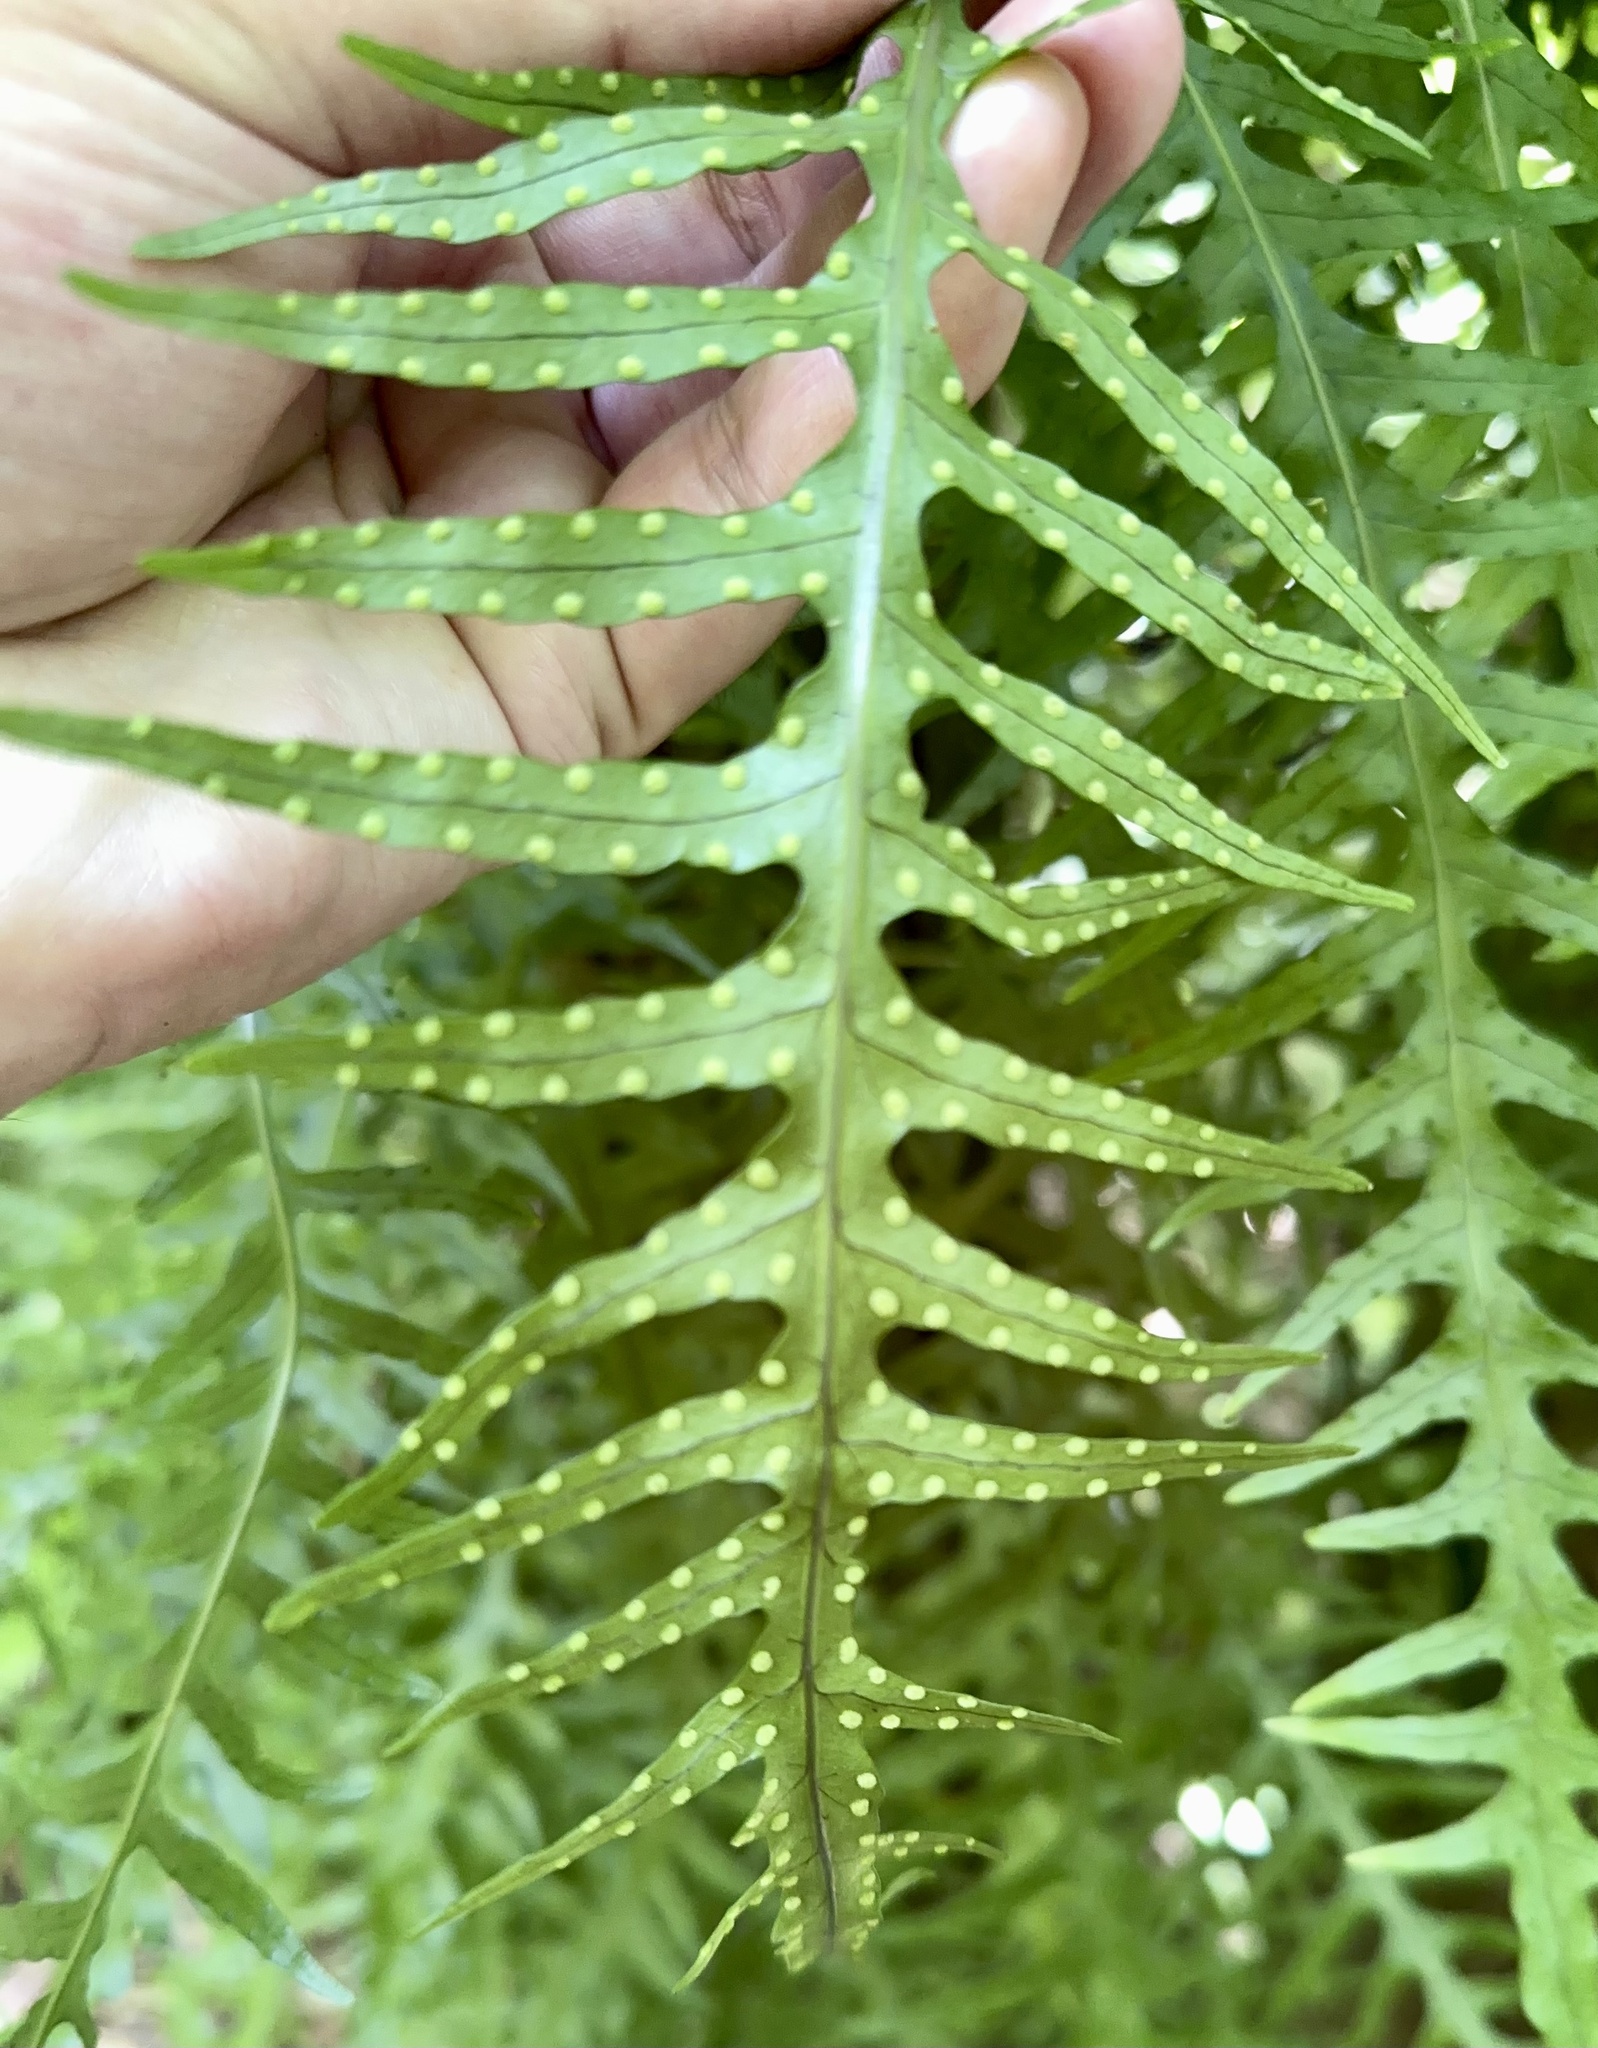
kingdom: Plantae
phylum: Tracheophyta
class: Polypodiopsida
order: Polypodiales
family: Polypodiaceae
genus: Lecanopteris
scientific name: Lecanopteris scandens
